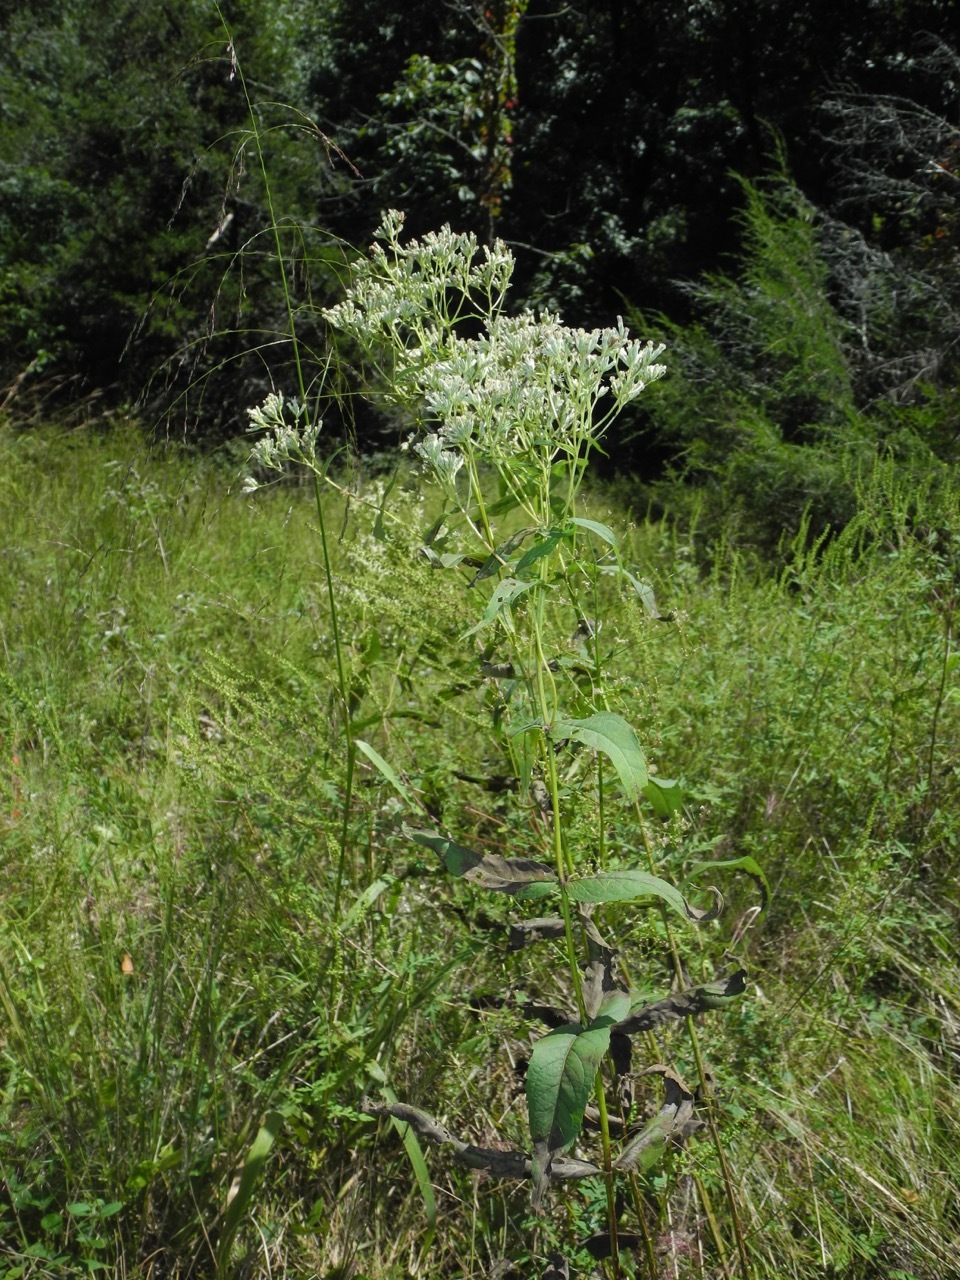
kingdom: Plantae
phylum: Tracheophyta
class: Magnoliopsida
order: Asterales
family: Asteraceae
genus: Eupatorium
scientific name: Eupatorium sessilifolium
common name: Upland boneset
